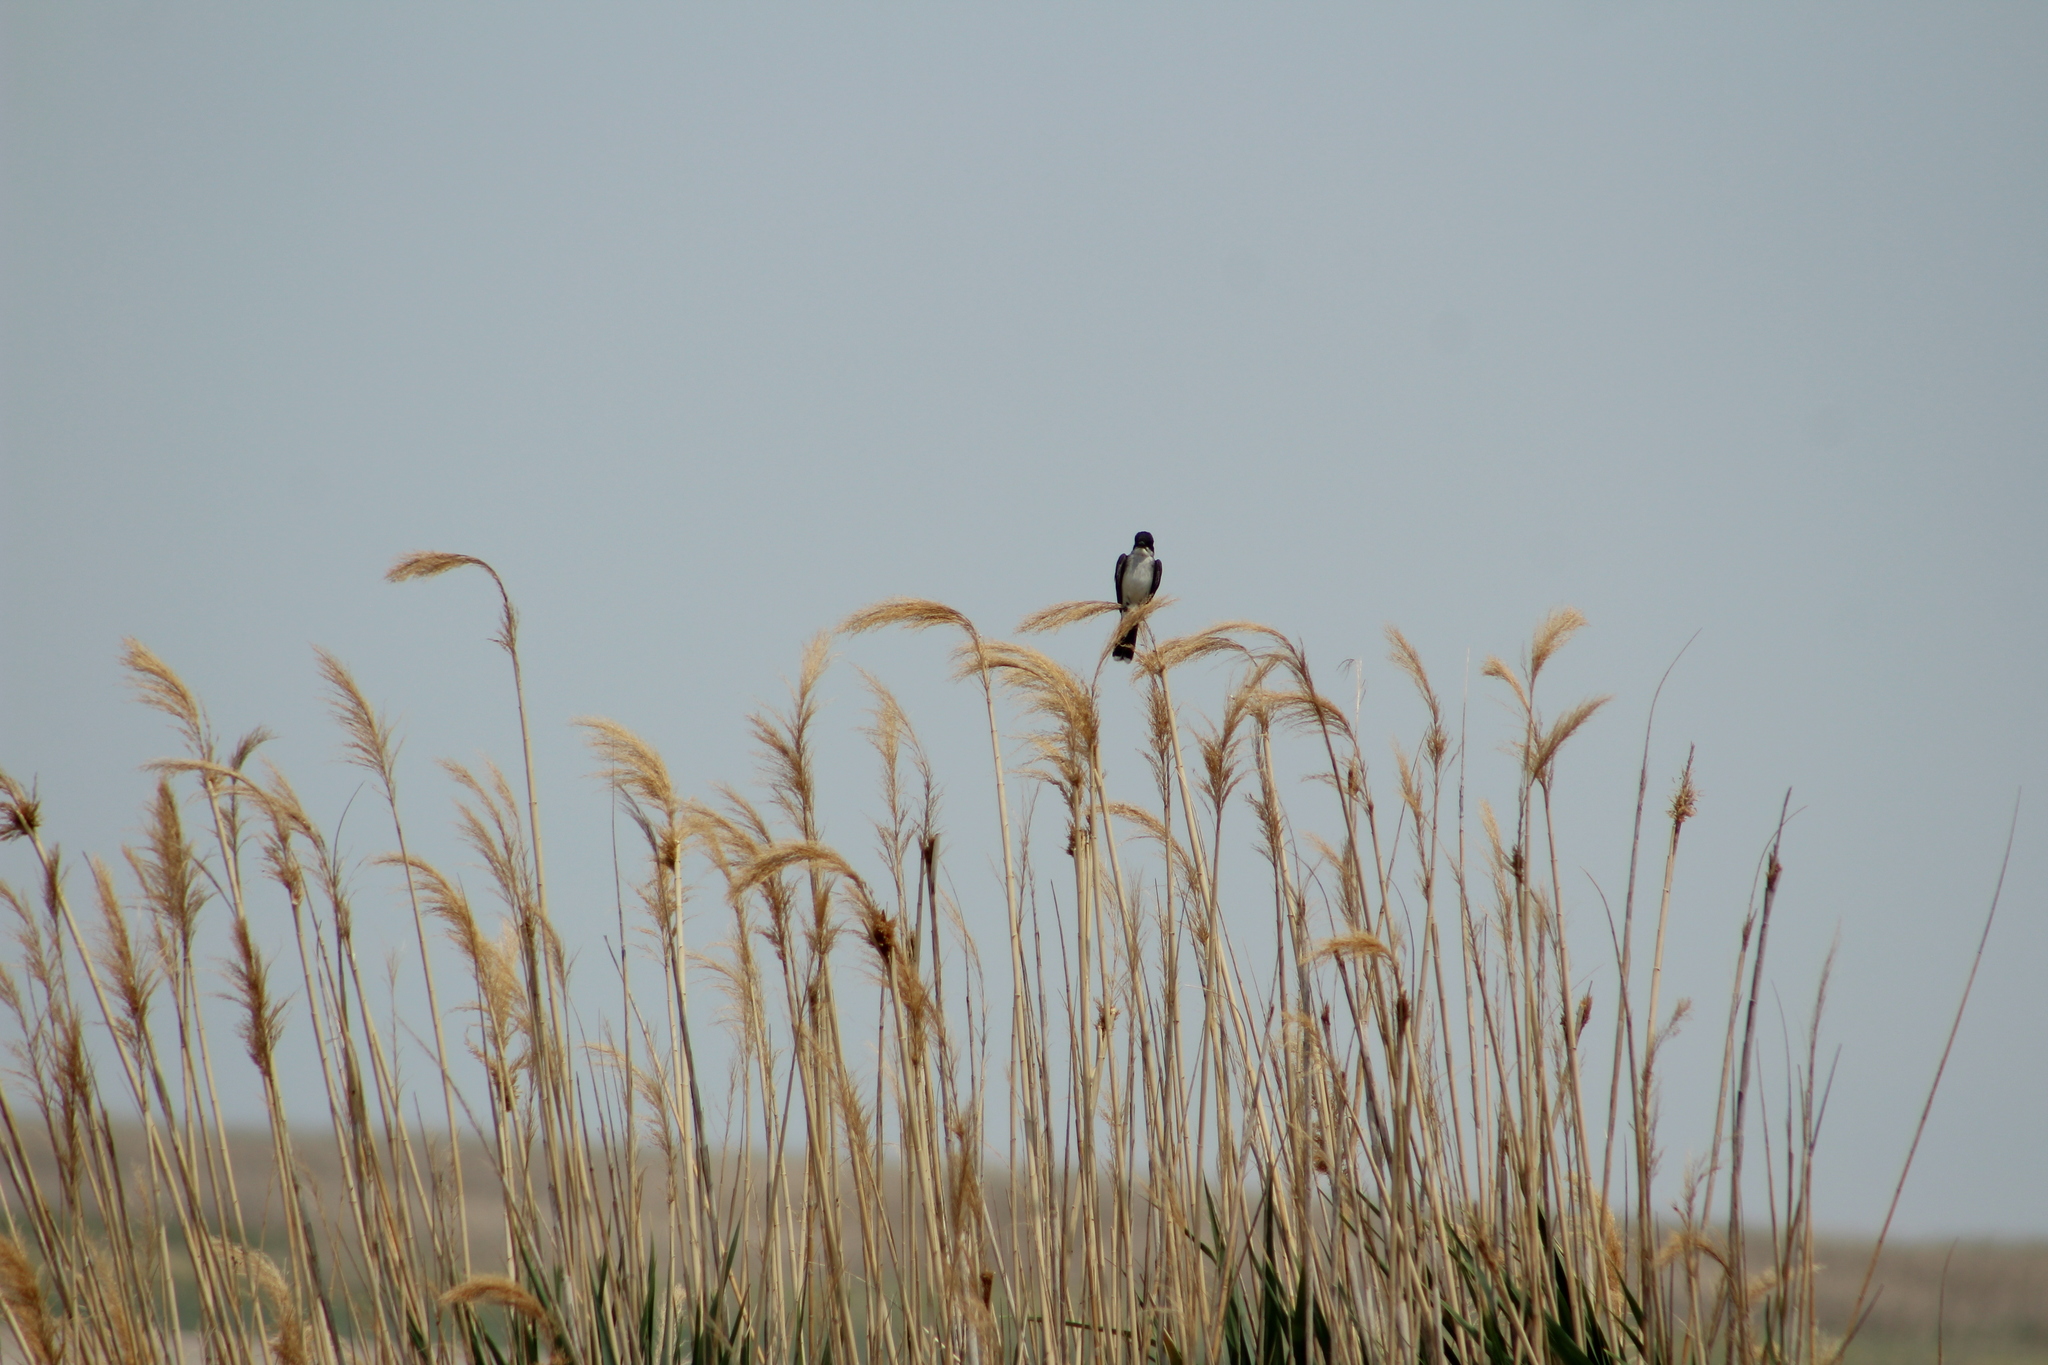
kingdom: Animalia
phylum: Chordata
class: Aves
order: Passeriformes
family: Tyrannidae
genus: Tyrannus
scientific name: Tyrannus tyrannus
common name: Eastern kingbird
